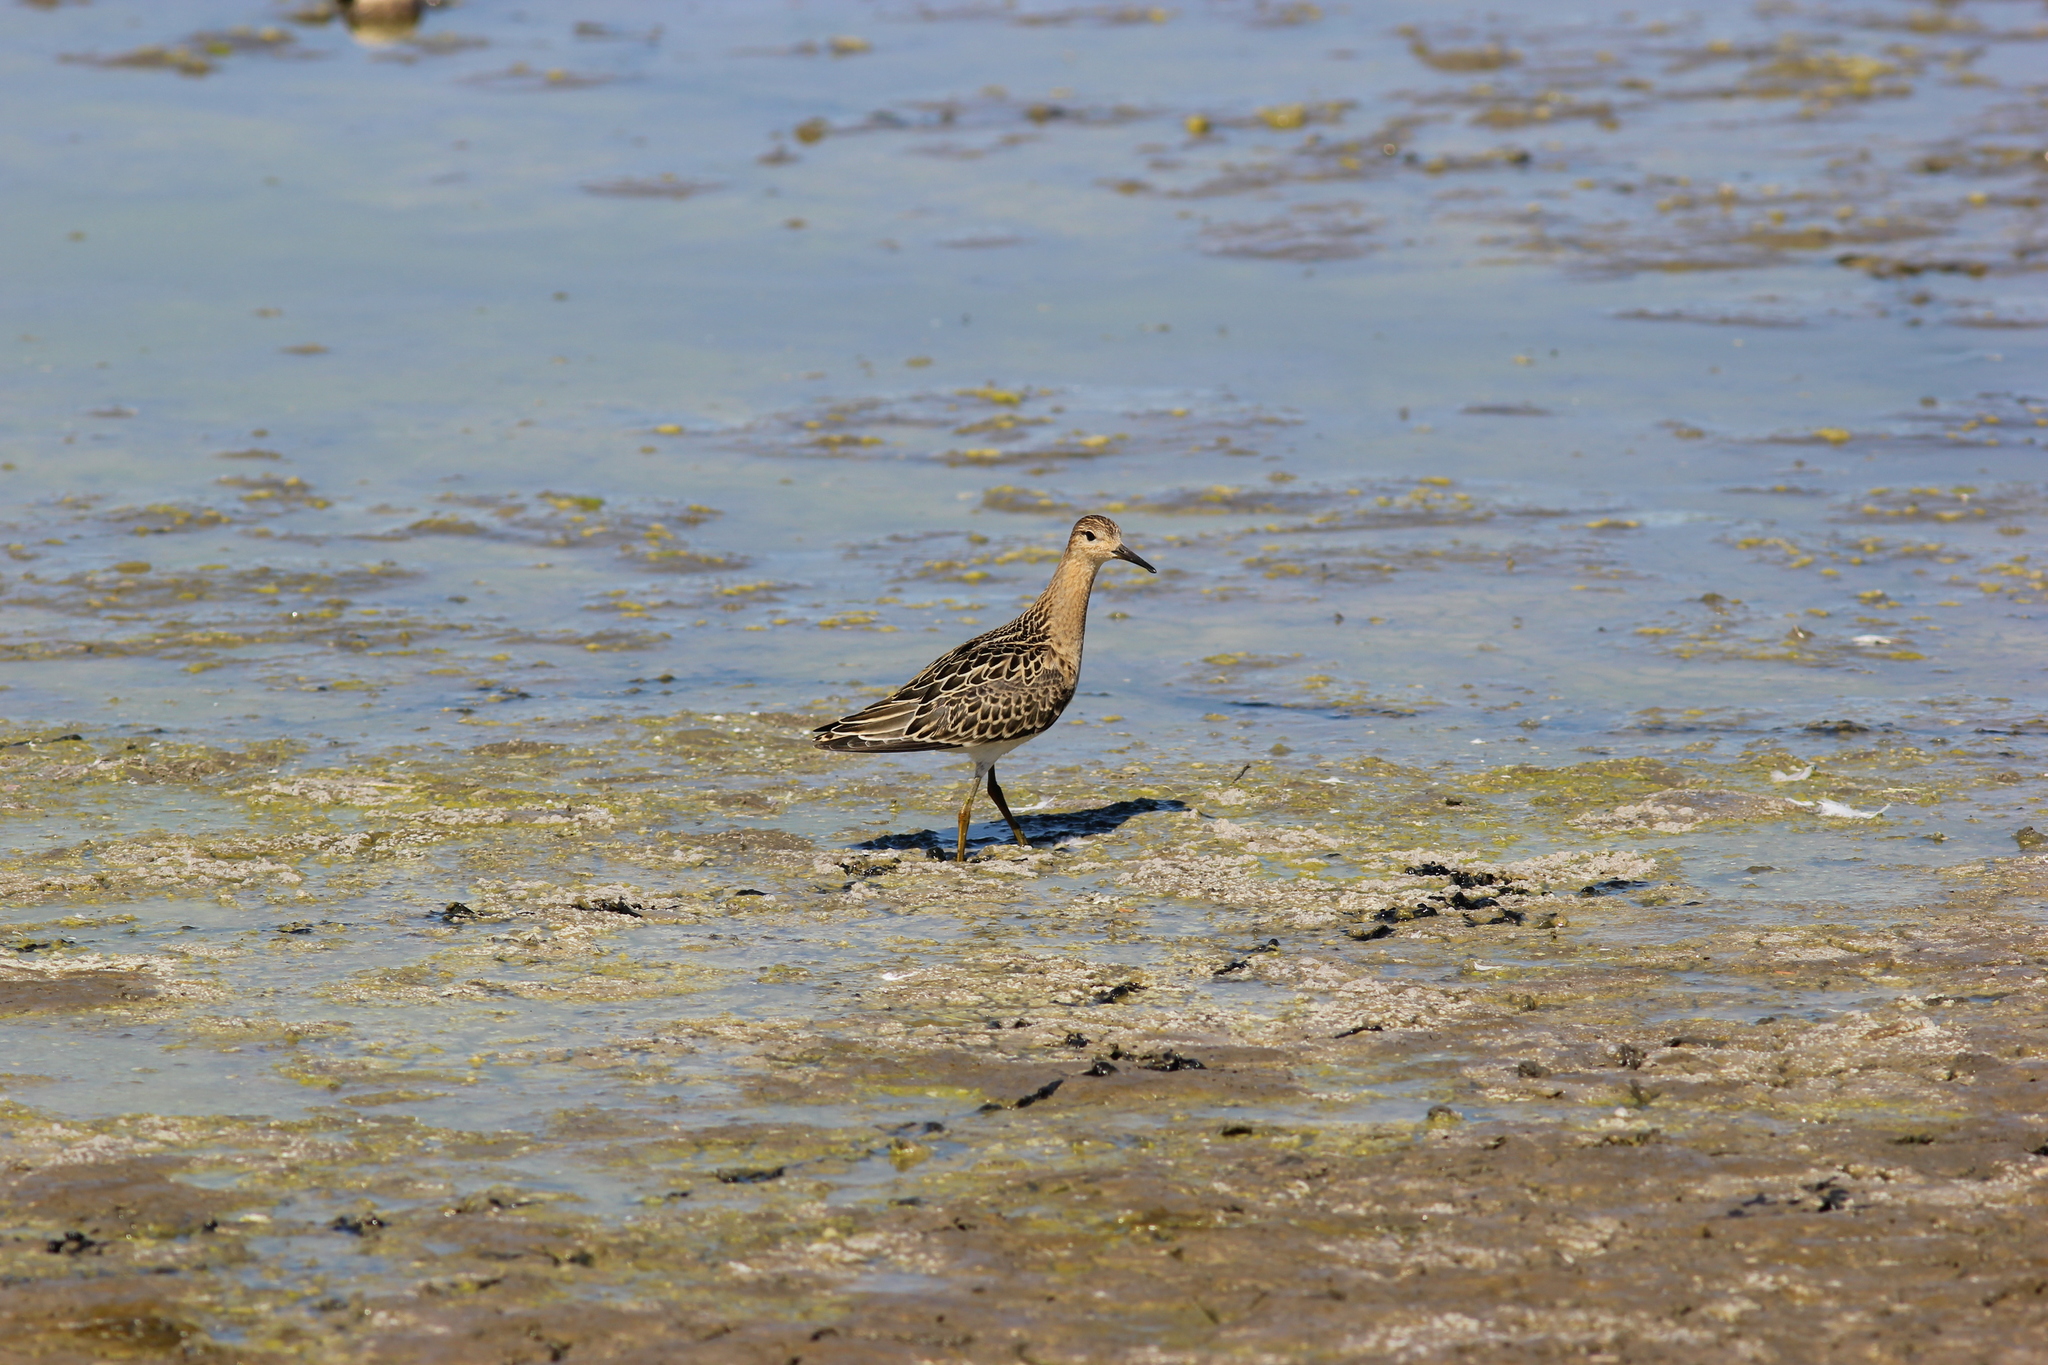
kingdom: Animalia
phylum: Chordata
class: Aves
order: Charadriiformes
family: Scolopacidae
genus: Calidris
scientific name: Calidris pugnax
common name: Ruff
